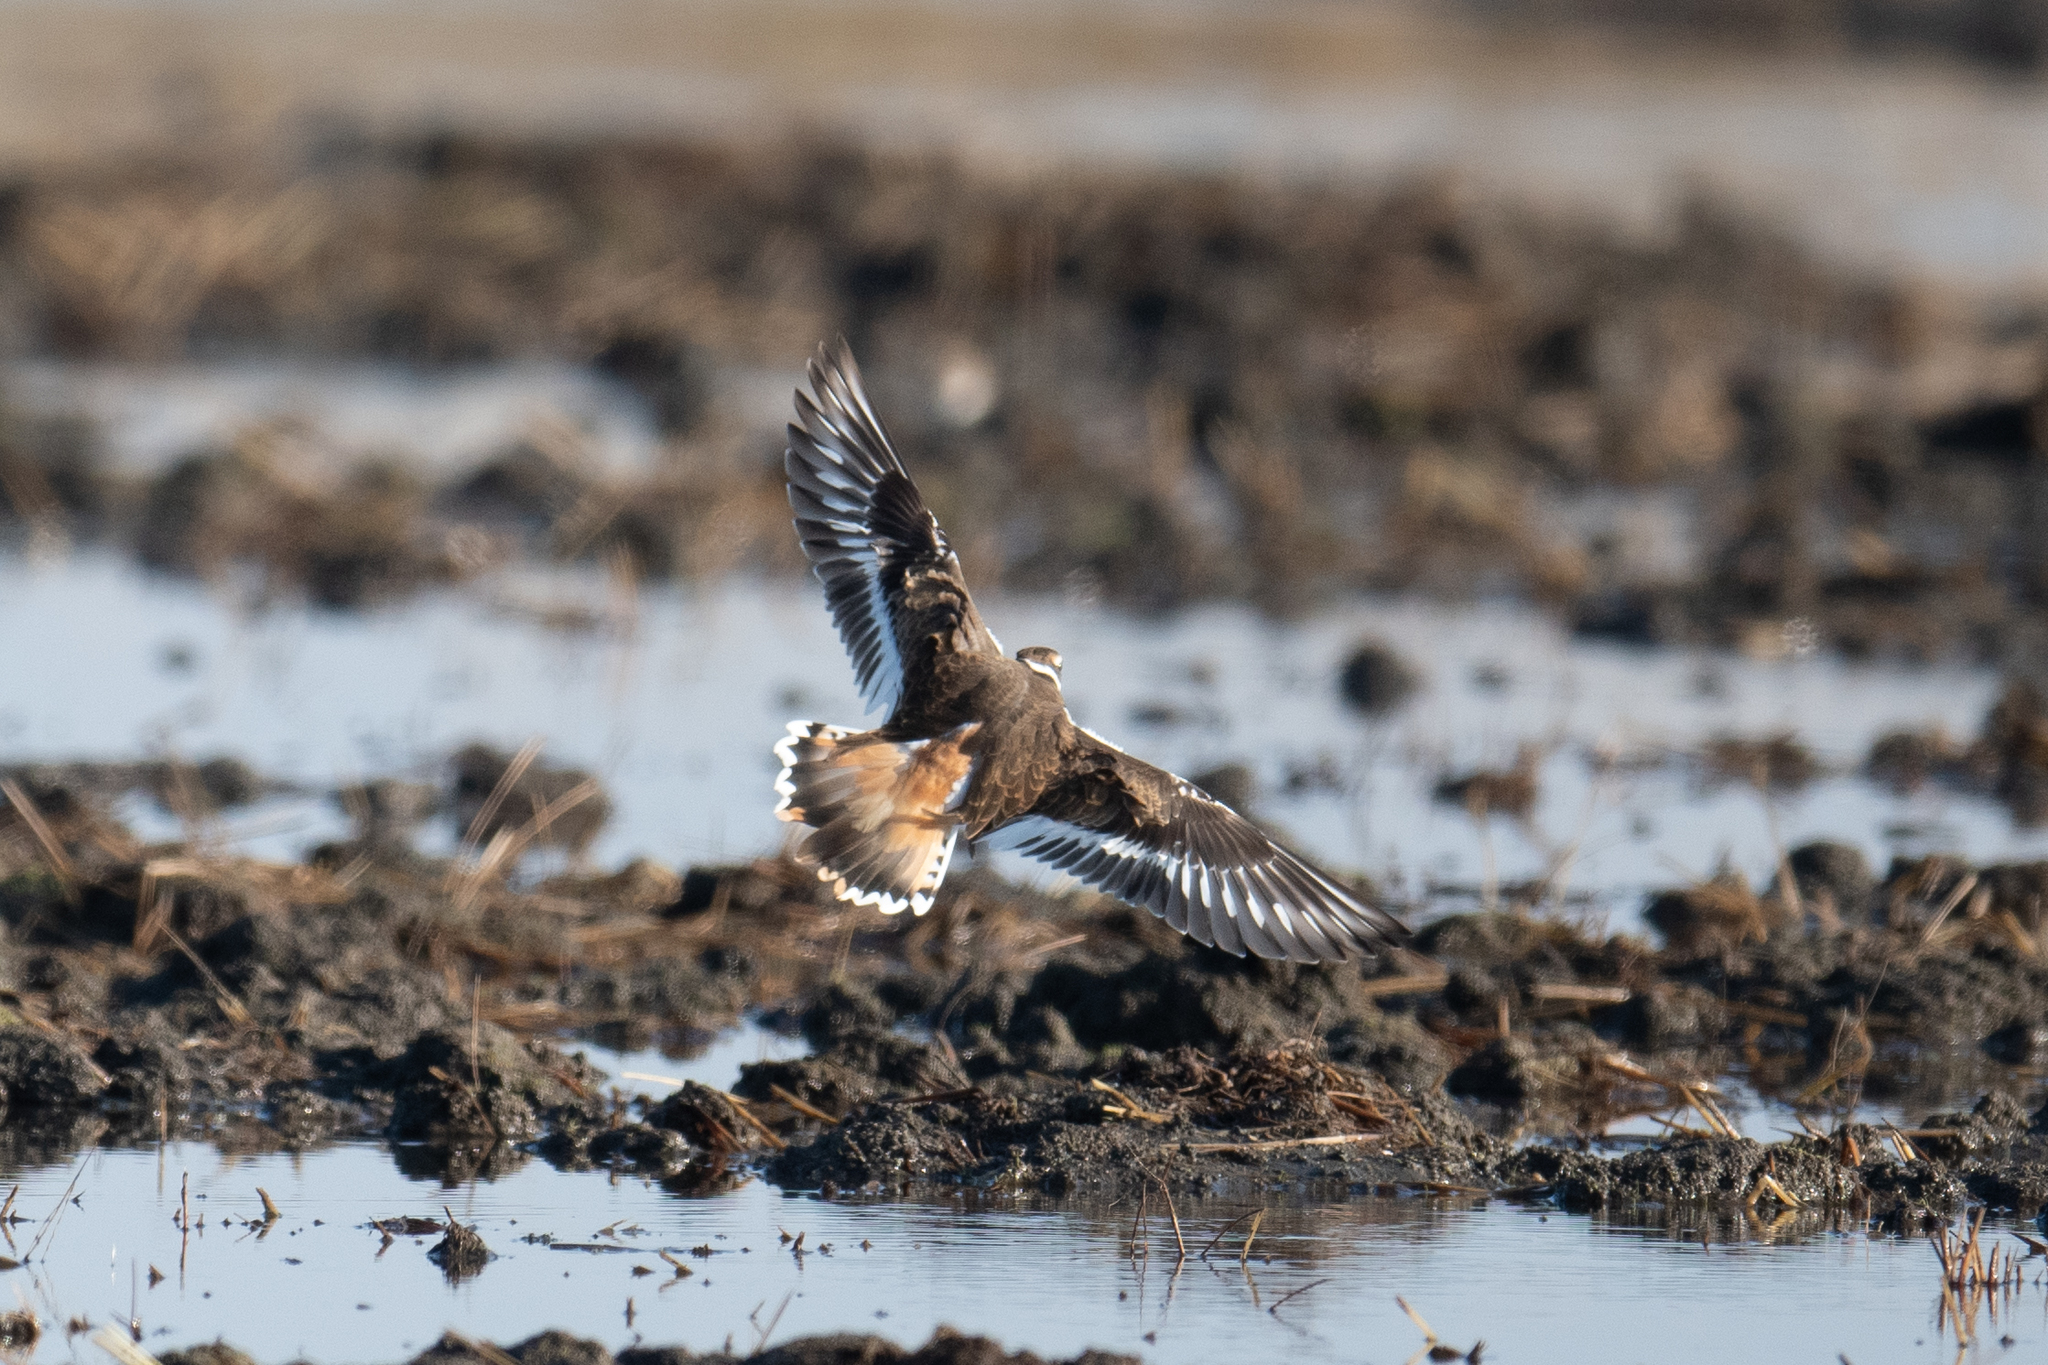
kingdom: Animalia
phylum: Chordata
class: Aves
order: Charadriiformes
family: Charadriidae
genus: Charadrius
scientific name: Charadrius vociferus
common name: Killdeer
